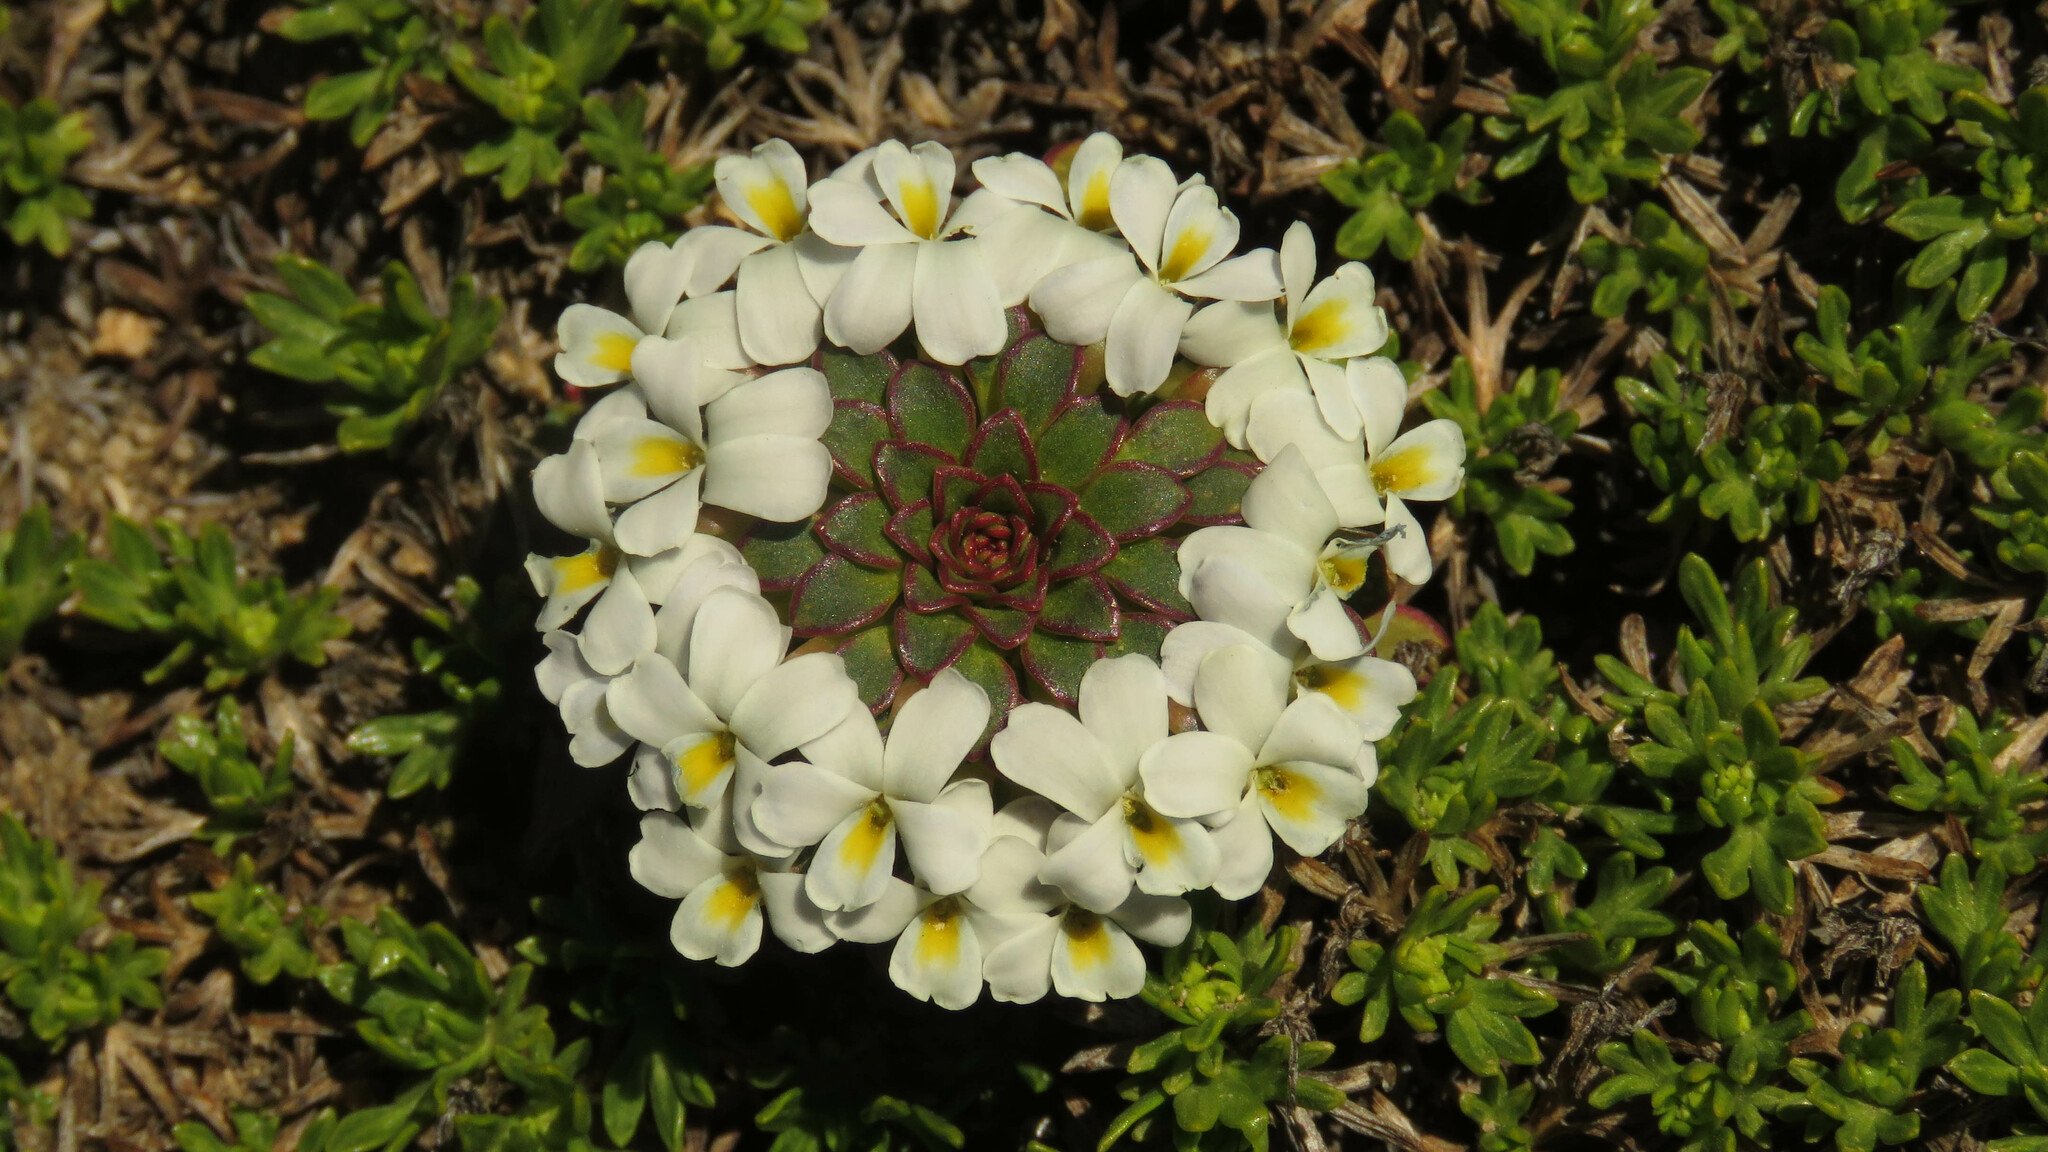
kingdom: Plantae
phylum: Tracheophyta
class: Magnoliopsida
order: Malpighiales
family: Violaceae
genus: Viola
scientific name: Viola sacculus
